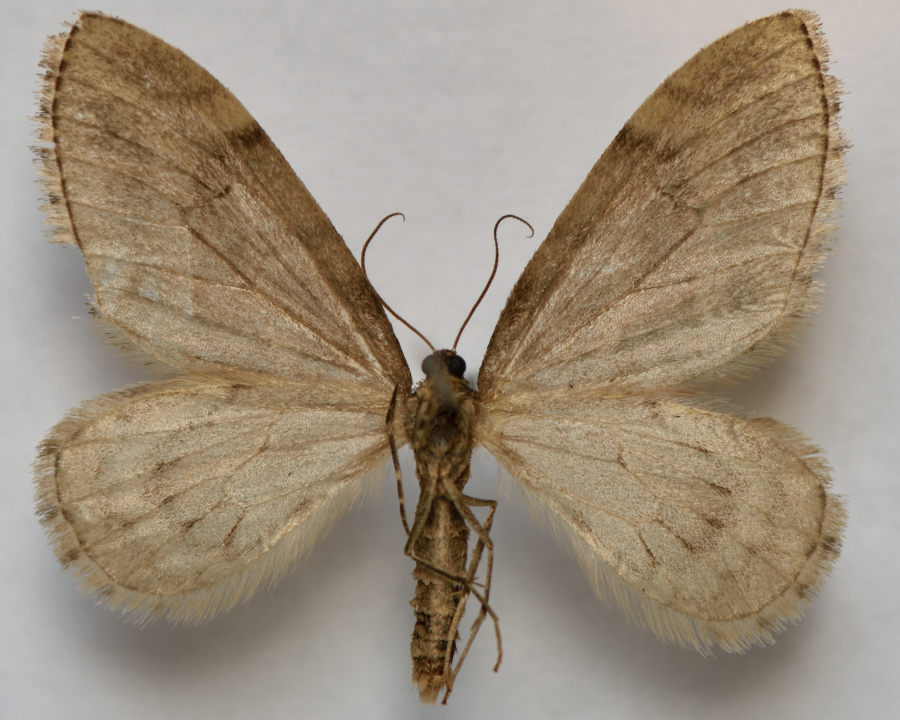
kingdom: Animalia
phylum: Arthropoda
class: Insecta
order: Lepidoptera
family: Geometridae
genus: Trichopteryx
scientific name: Trichopteryx polycommata
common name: Barred tooth-striped
